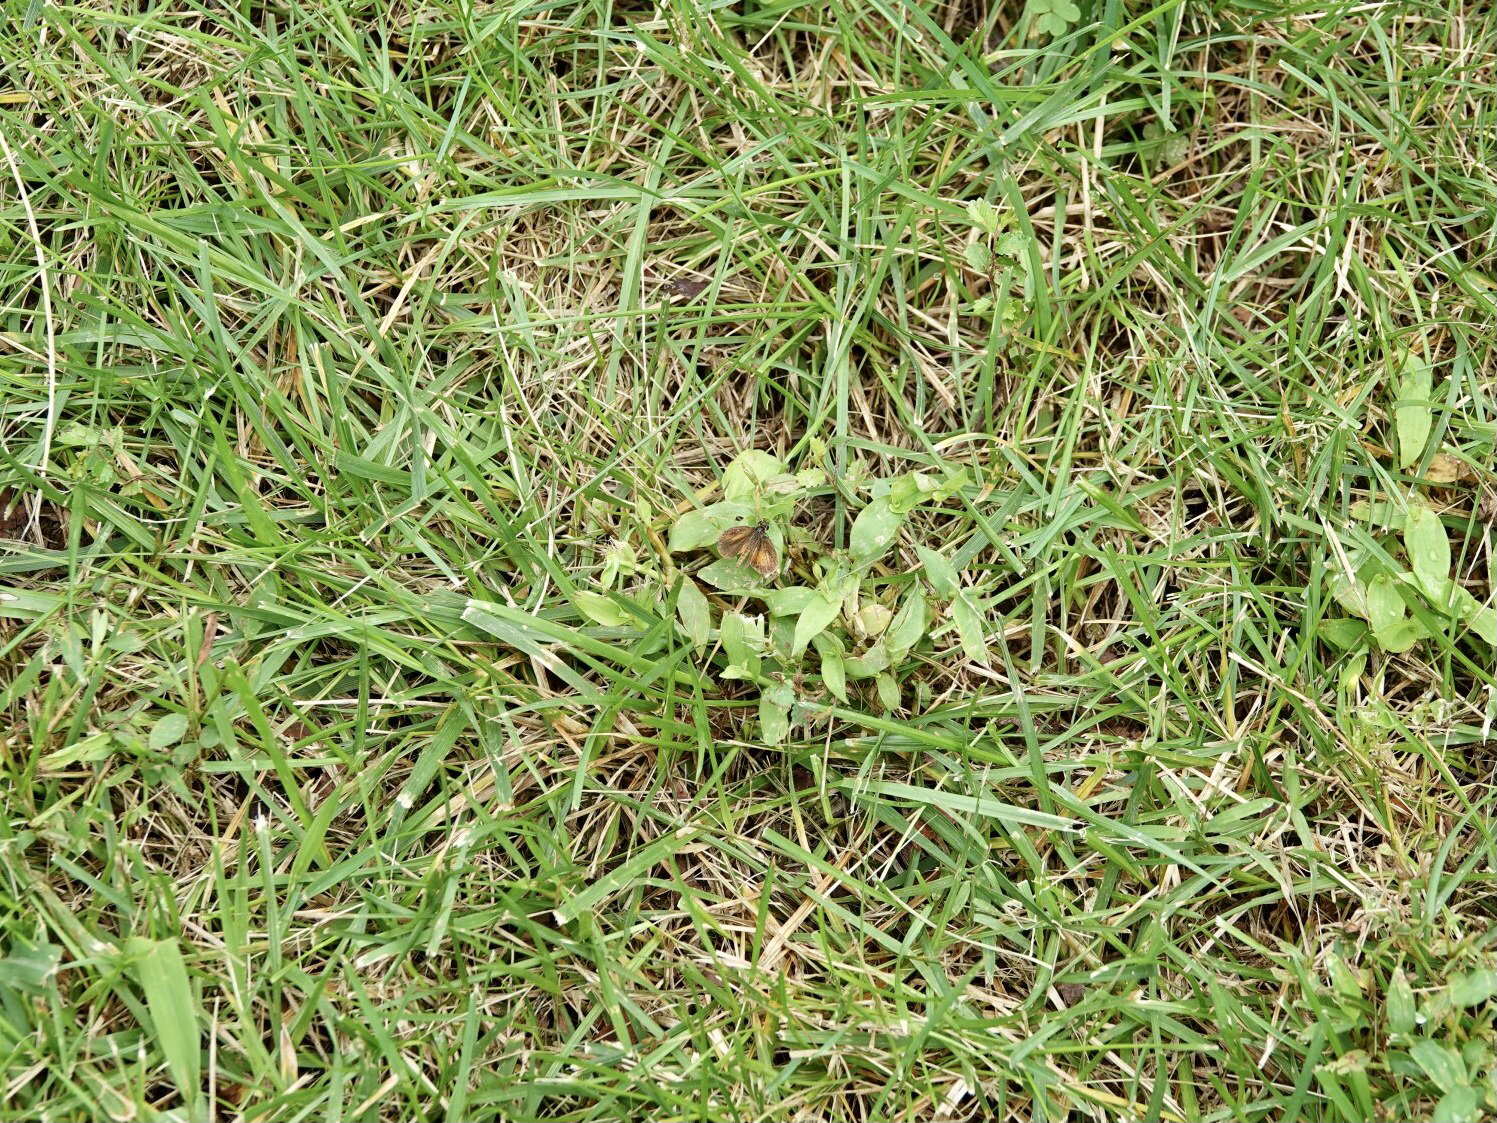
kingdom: Animalia
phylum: Arthropoda
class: Insecta
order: Lepidoptera
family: Hesperiidae
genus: Ancyloxypha
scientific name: Ancyloxypha numitor
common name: Least skipper
